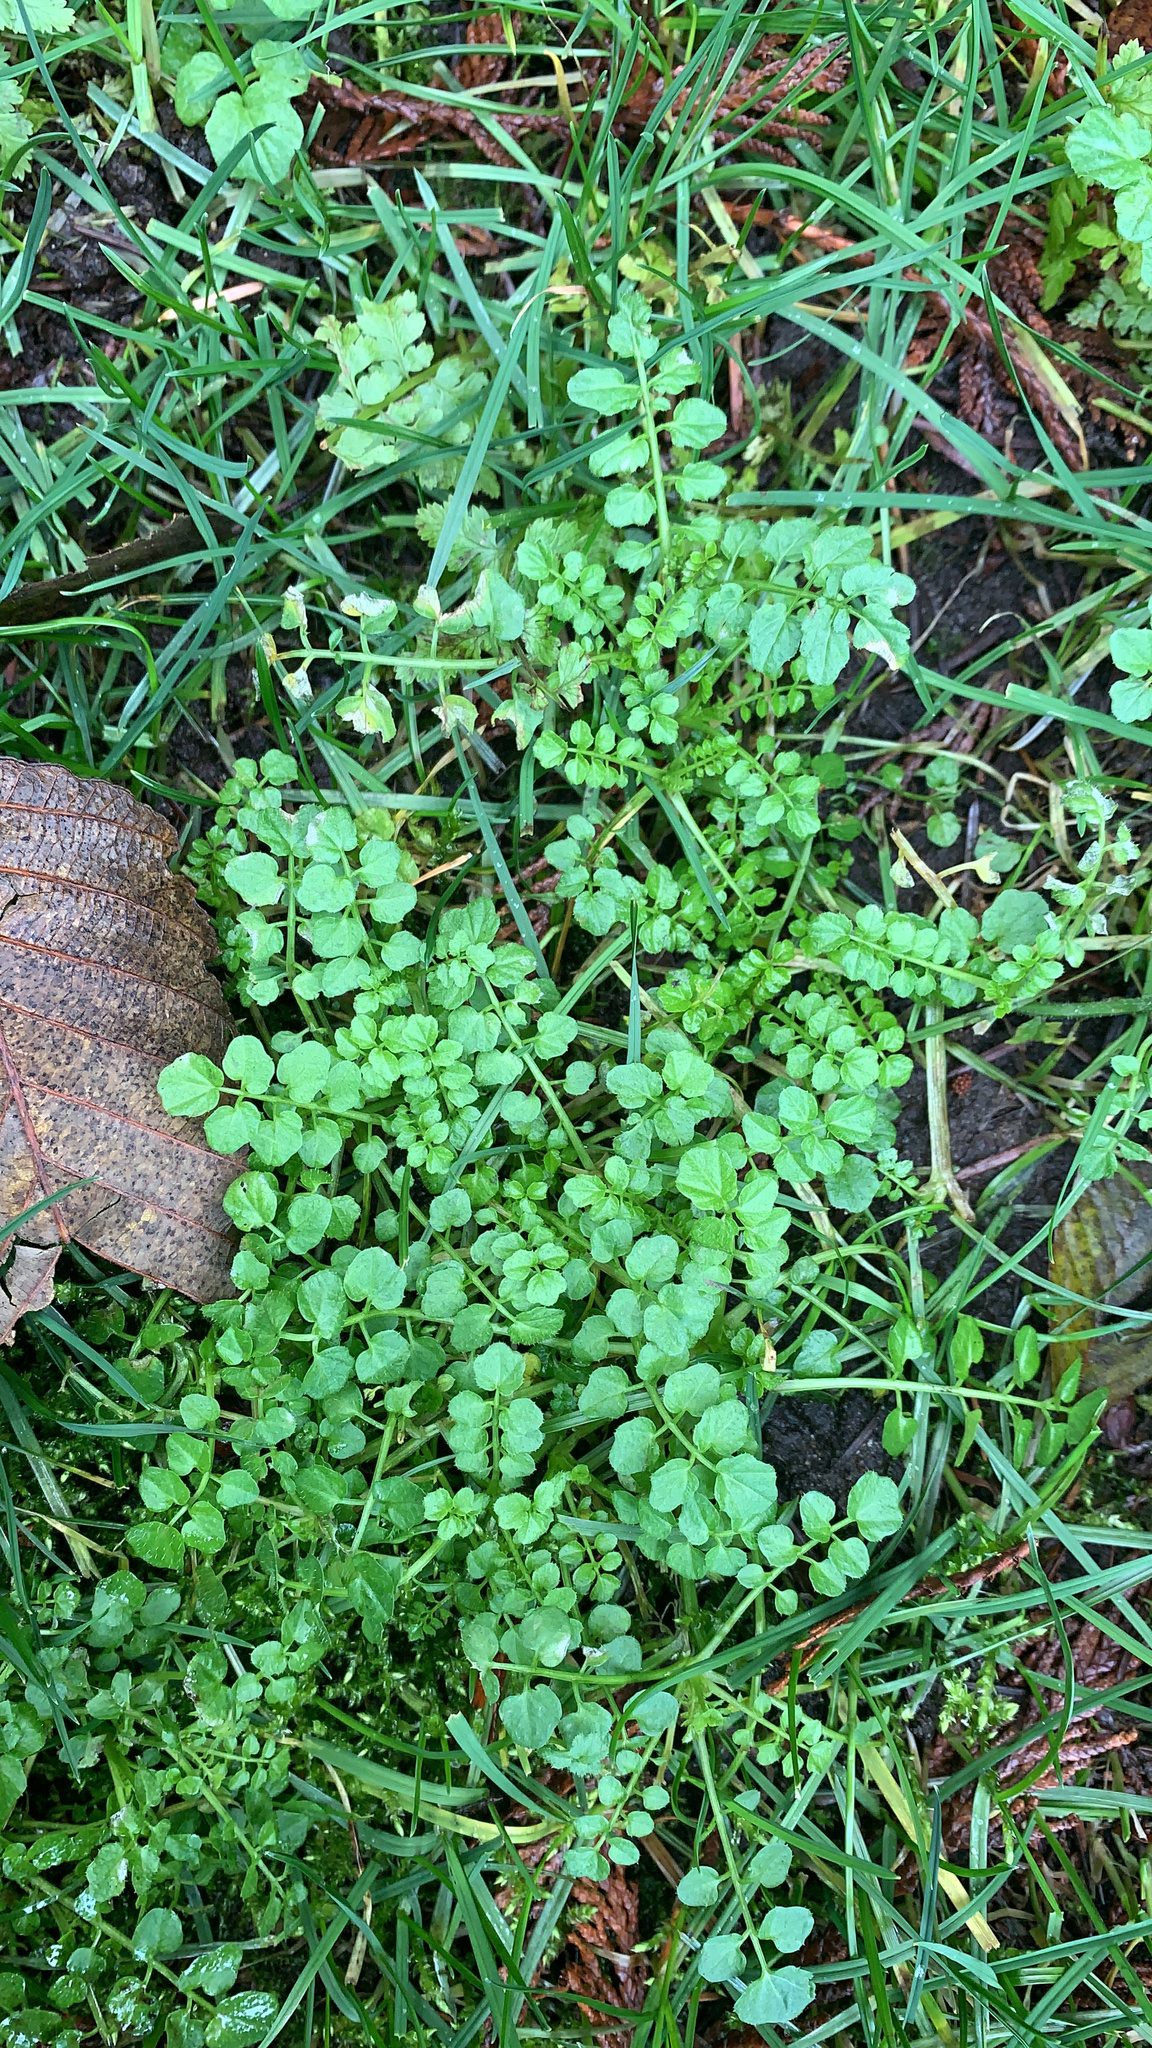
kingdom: Plantae
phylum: Tracheophyta
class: Magnoliopsida
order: Brassicales
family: Brassicaceae
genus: Cardamine
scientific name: Cardamine flexuosa
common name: Woodland bittercress
